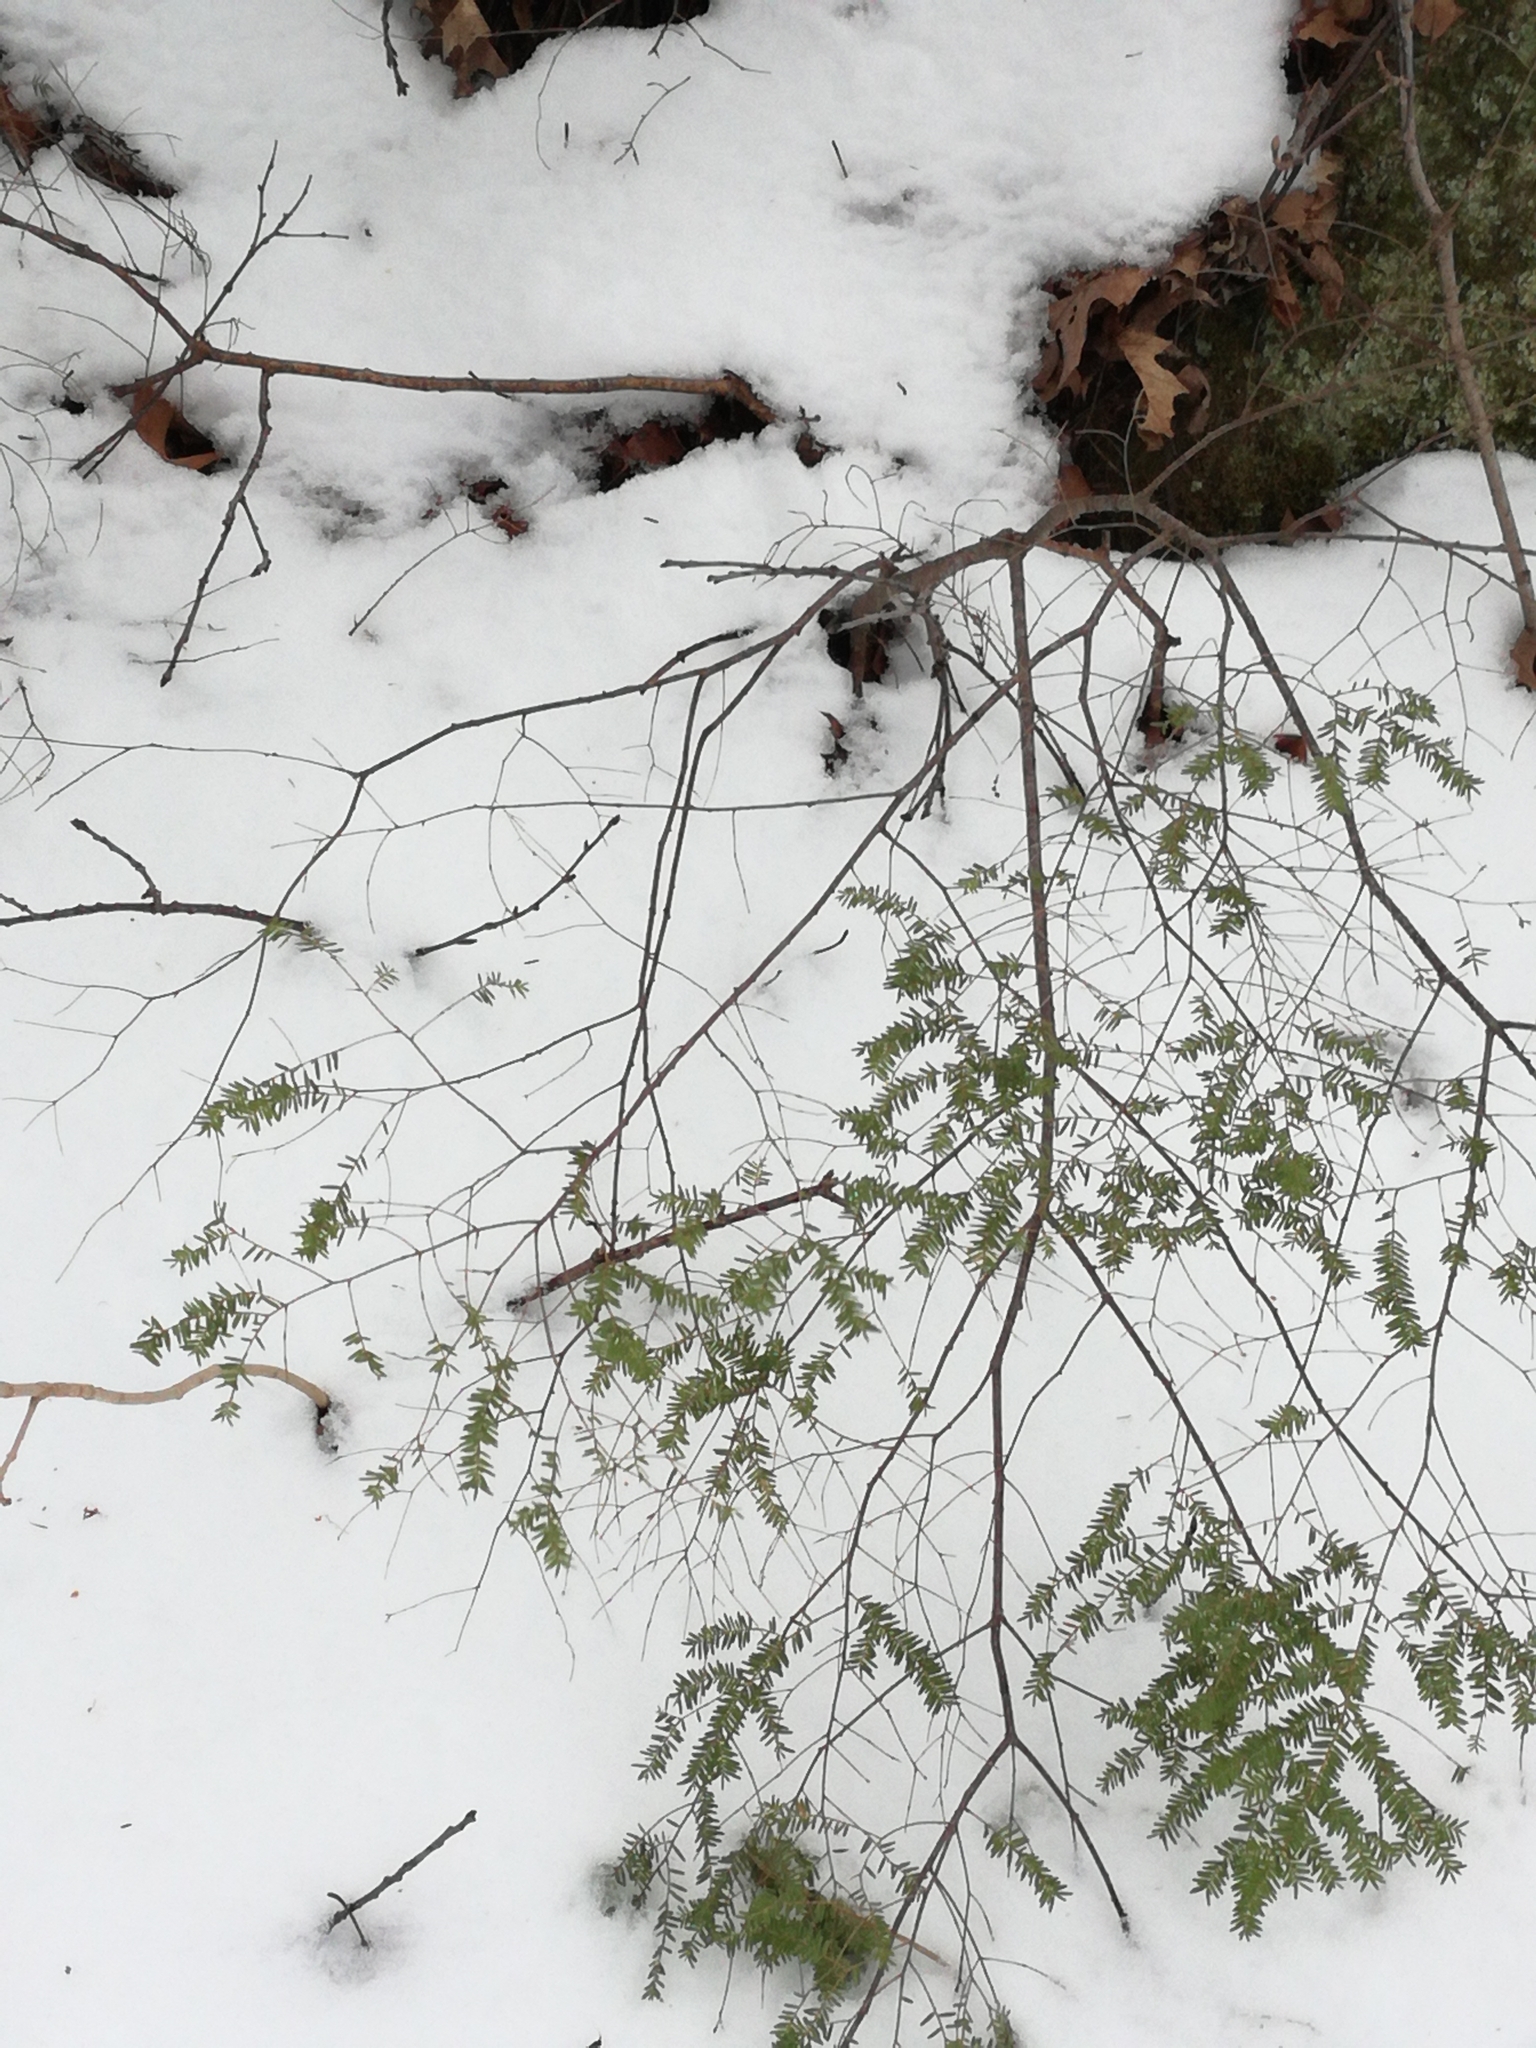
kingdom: Plantae
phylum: Tracheophyta
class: Pinopsida
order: Pinales
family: Pinaceae
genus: Tsuga
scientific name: Tsuga canadensis
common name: Eastern hemlock
